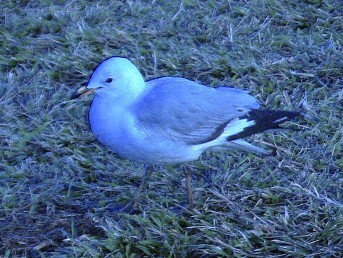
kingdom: Animalia
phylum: Chordata
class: Aves
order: Charadriiformes
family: Laridae
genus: Chroicocephalus
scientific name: Chroicocephalus novaehollandiae
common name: Silver gull
